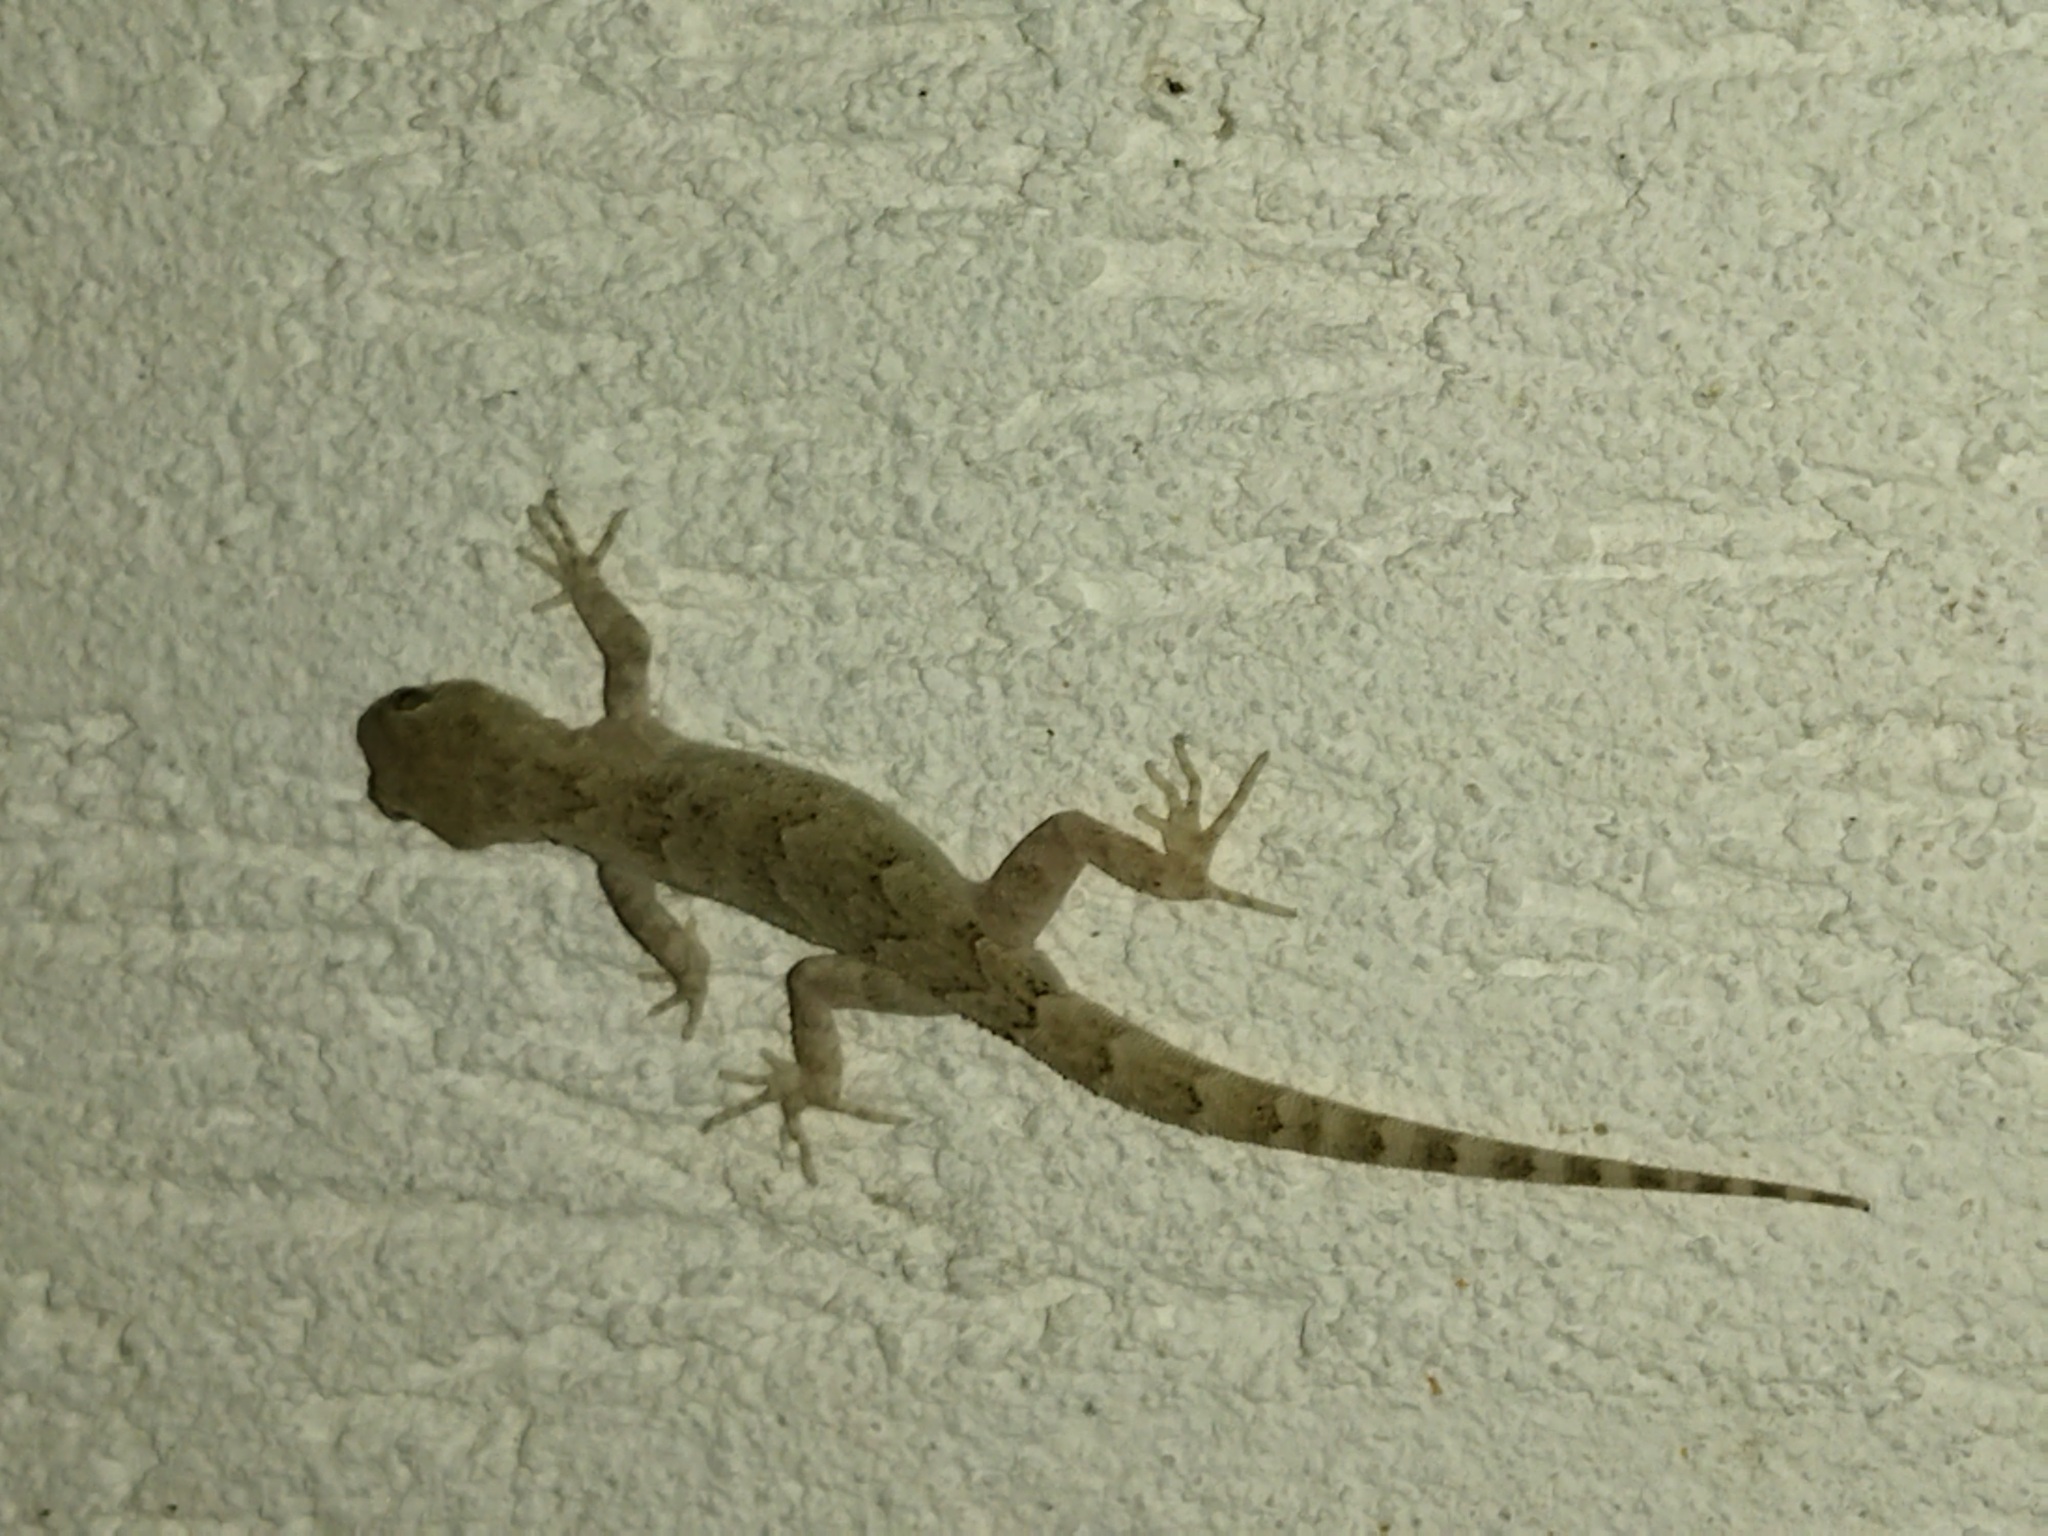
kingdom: Animalia
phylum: Chordata
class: Squamata
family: Gekkonidae
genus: Mediodactylus
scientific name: Mediodactylus kotschyi
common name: Kotschy's gecko
